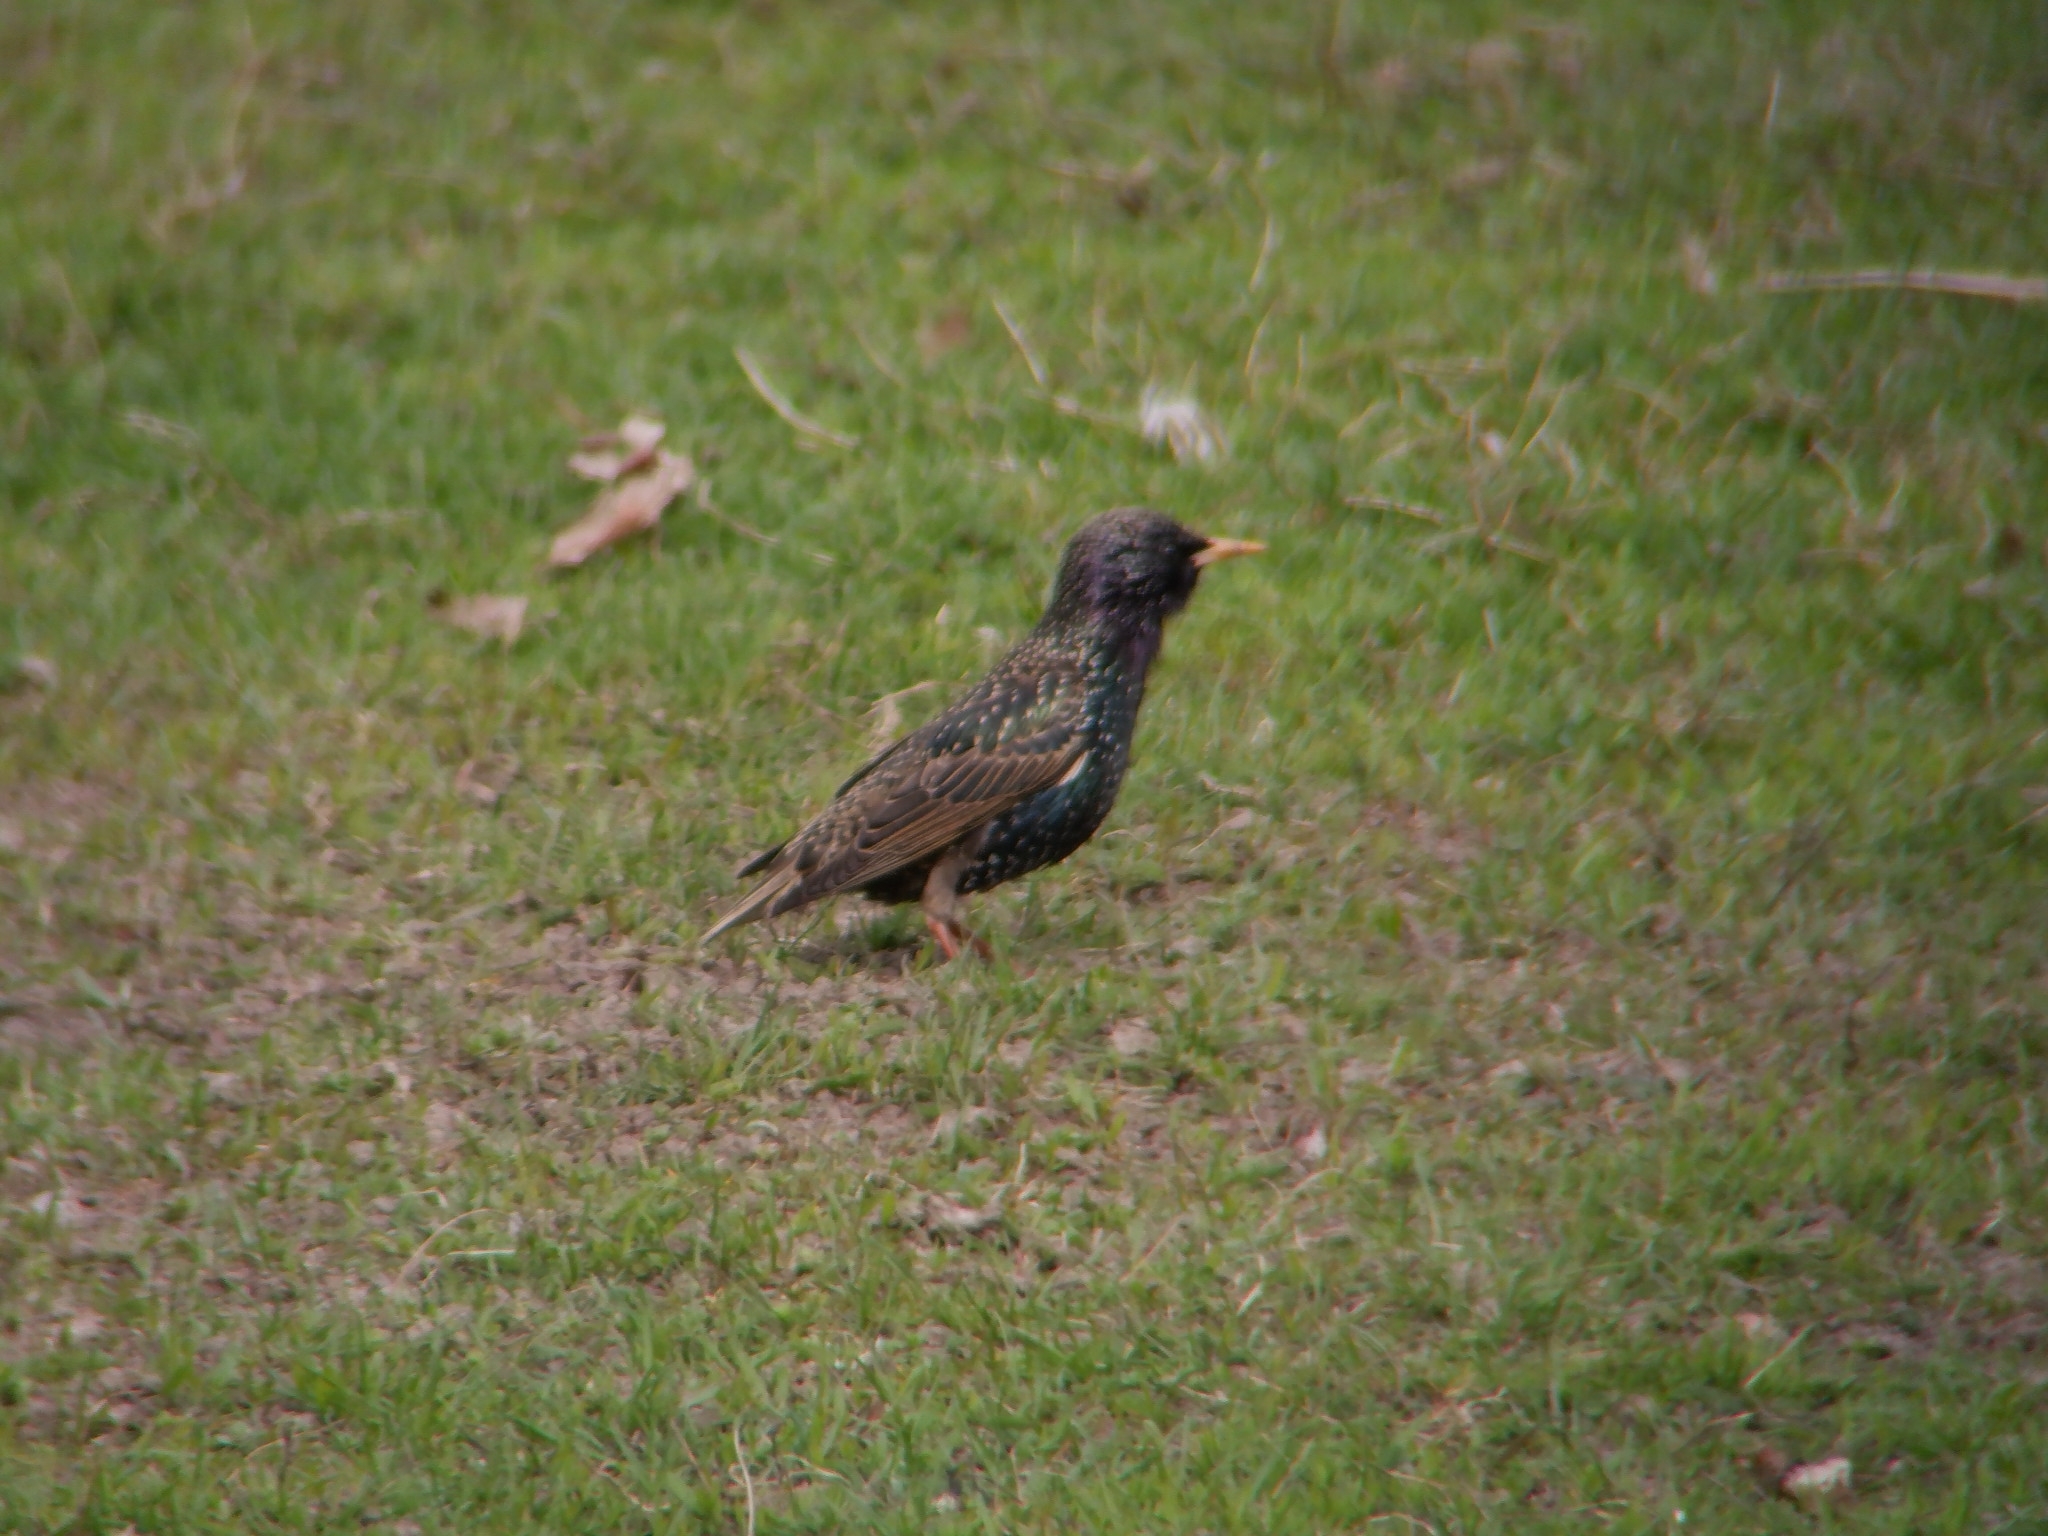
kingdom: Animalia
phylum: Chordata
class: Aves
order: Passeriformes
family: Sturnidae
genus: Sturnus
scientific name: Sturnus vulgaris
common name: Common starling
